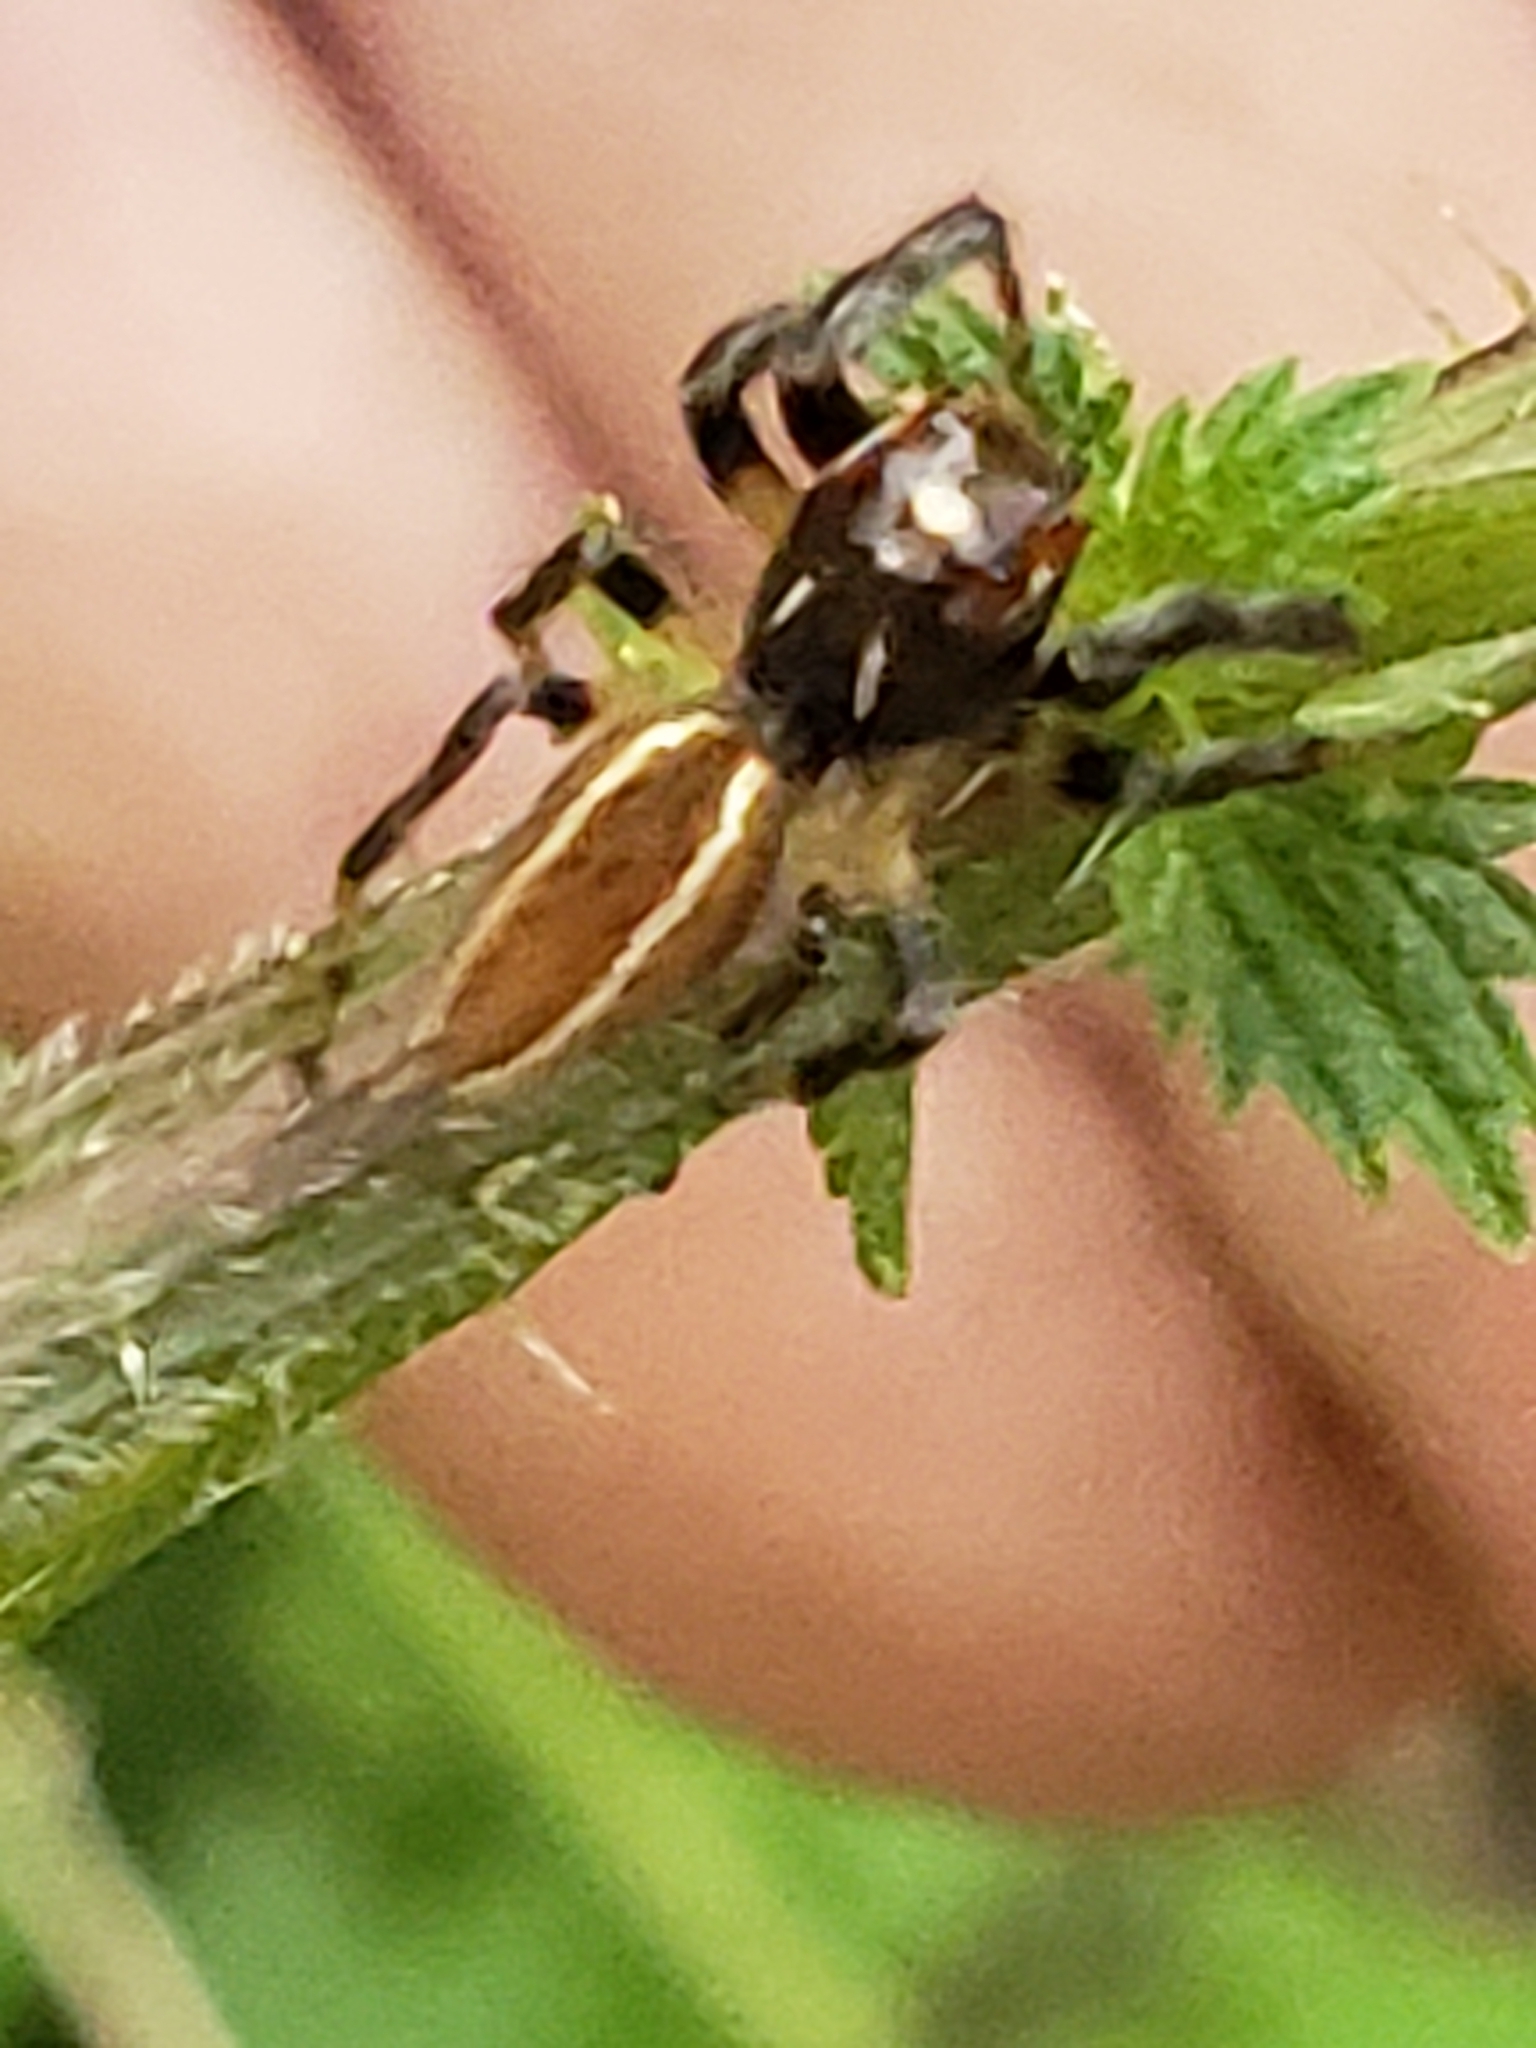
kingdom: Animalia
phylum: Arthropoda
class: Arachnida
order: Araneae
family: Salticidae
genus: Colonus
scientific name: Colonus sylvanus
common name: Jumping spiders
